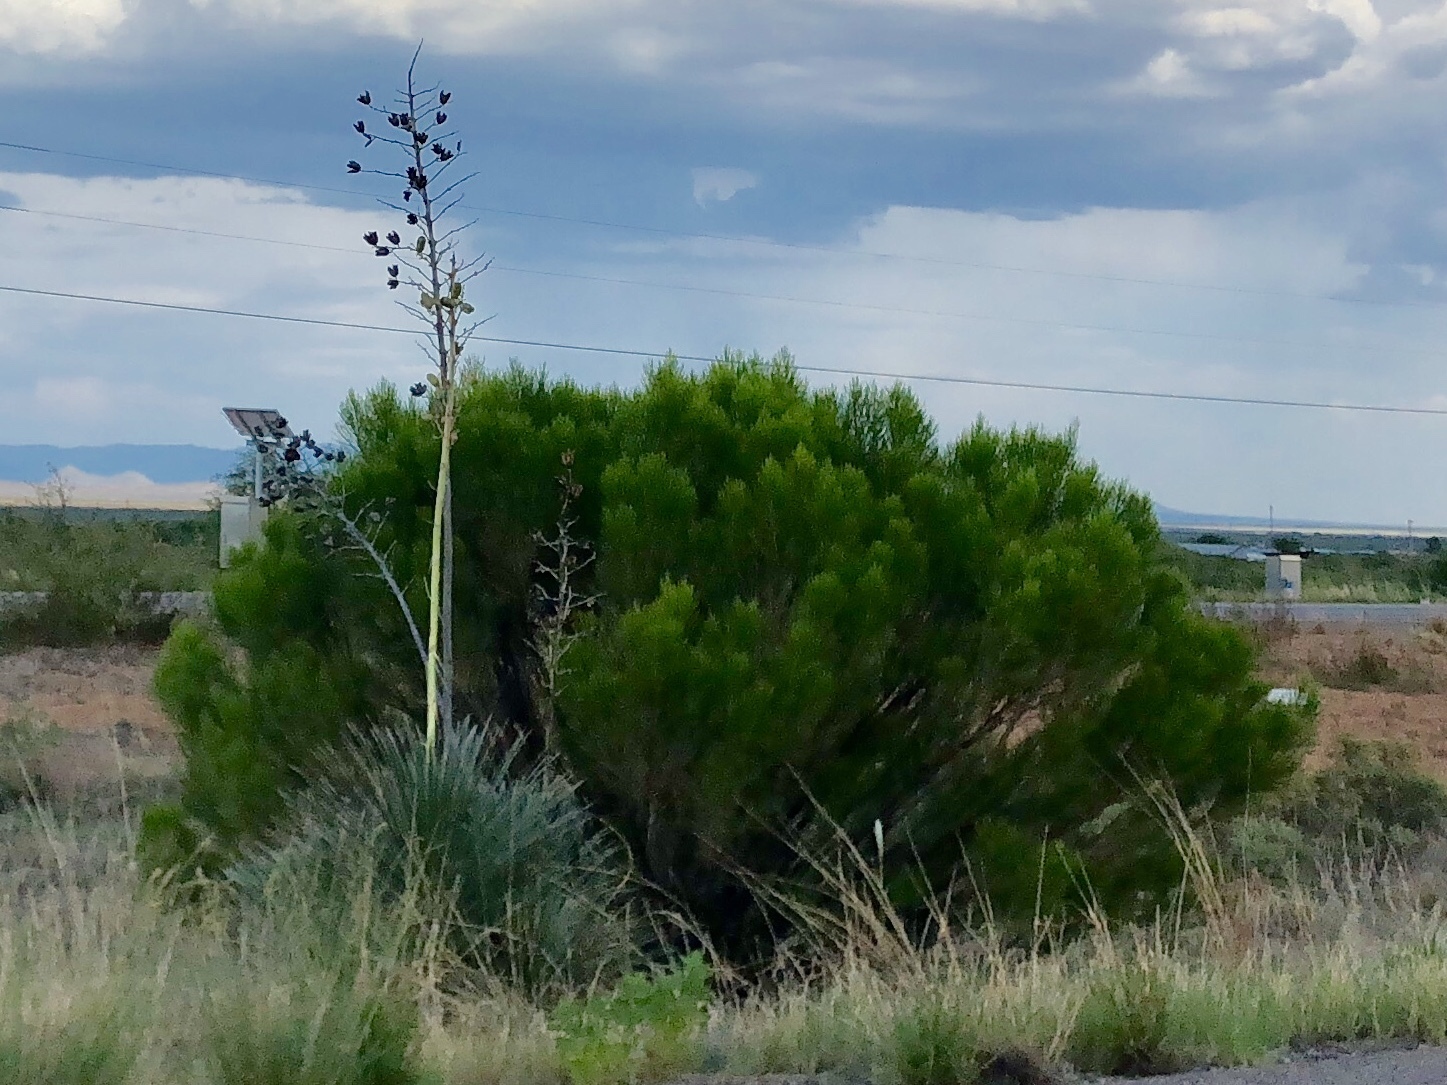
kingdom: Plantae
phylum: Tracheophyta
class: Magnoliopsida
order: Asterales
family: Asteraceae
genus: Baccharis
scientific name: Baccharis sarothroides
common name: Desert-broom
